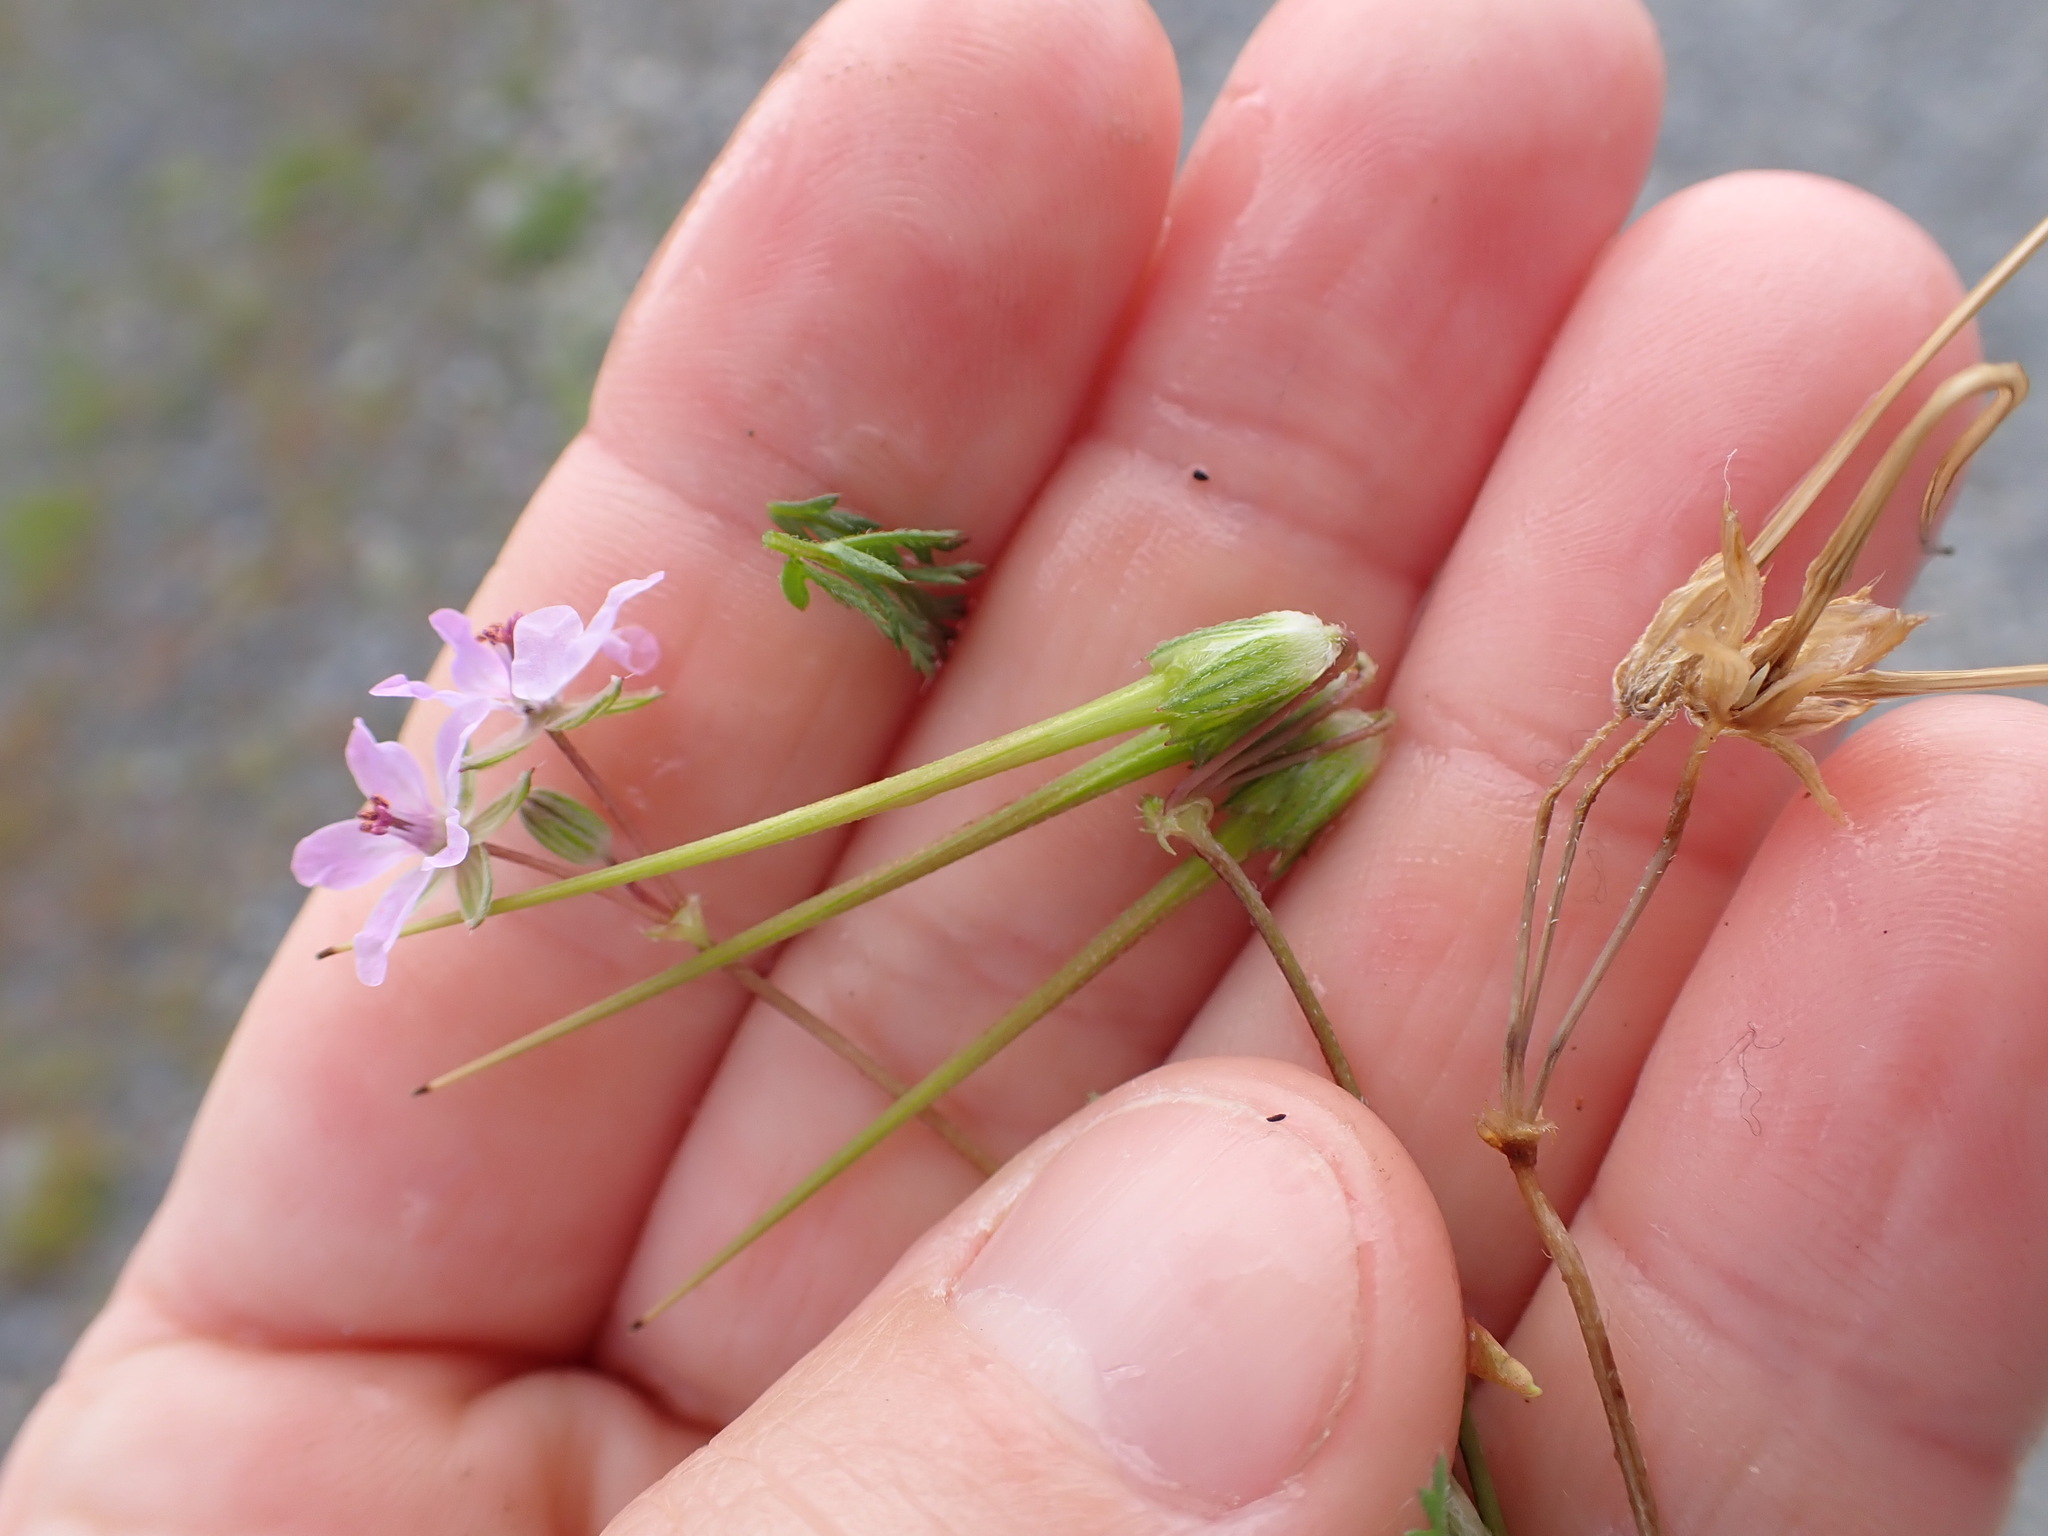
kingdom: Plantae
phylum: Tracheophyta
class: Magnoliopsida
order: Geraniales
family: Geraniaceae
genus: Erodium
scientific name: Erodium cicutarium
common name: Common stork's-bill
